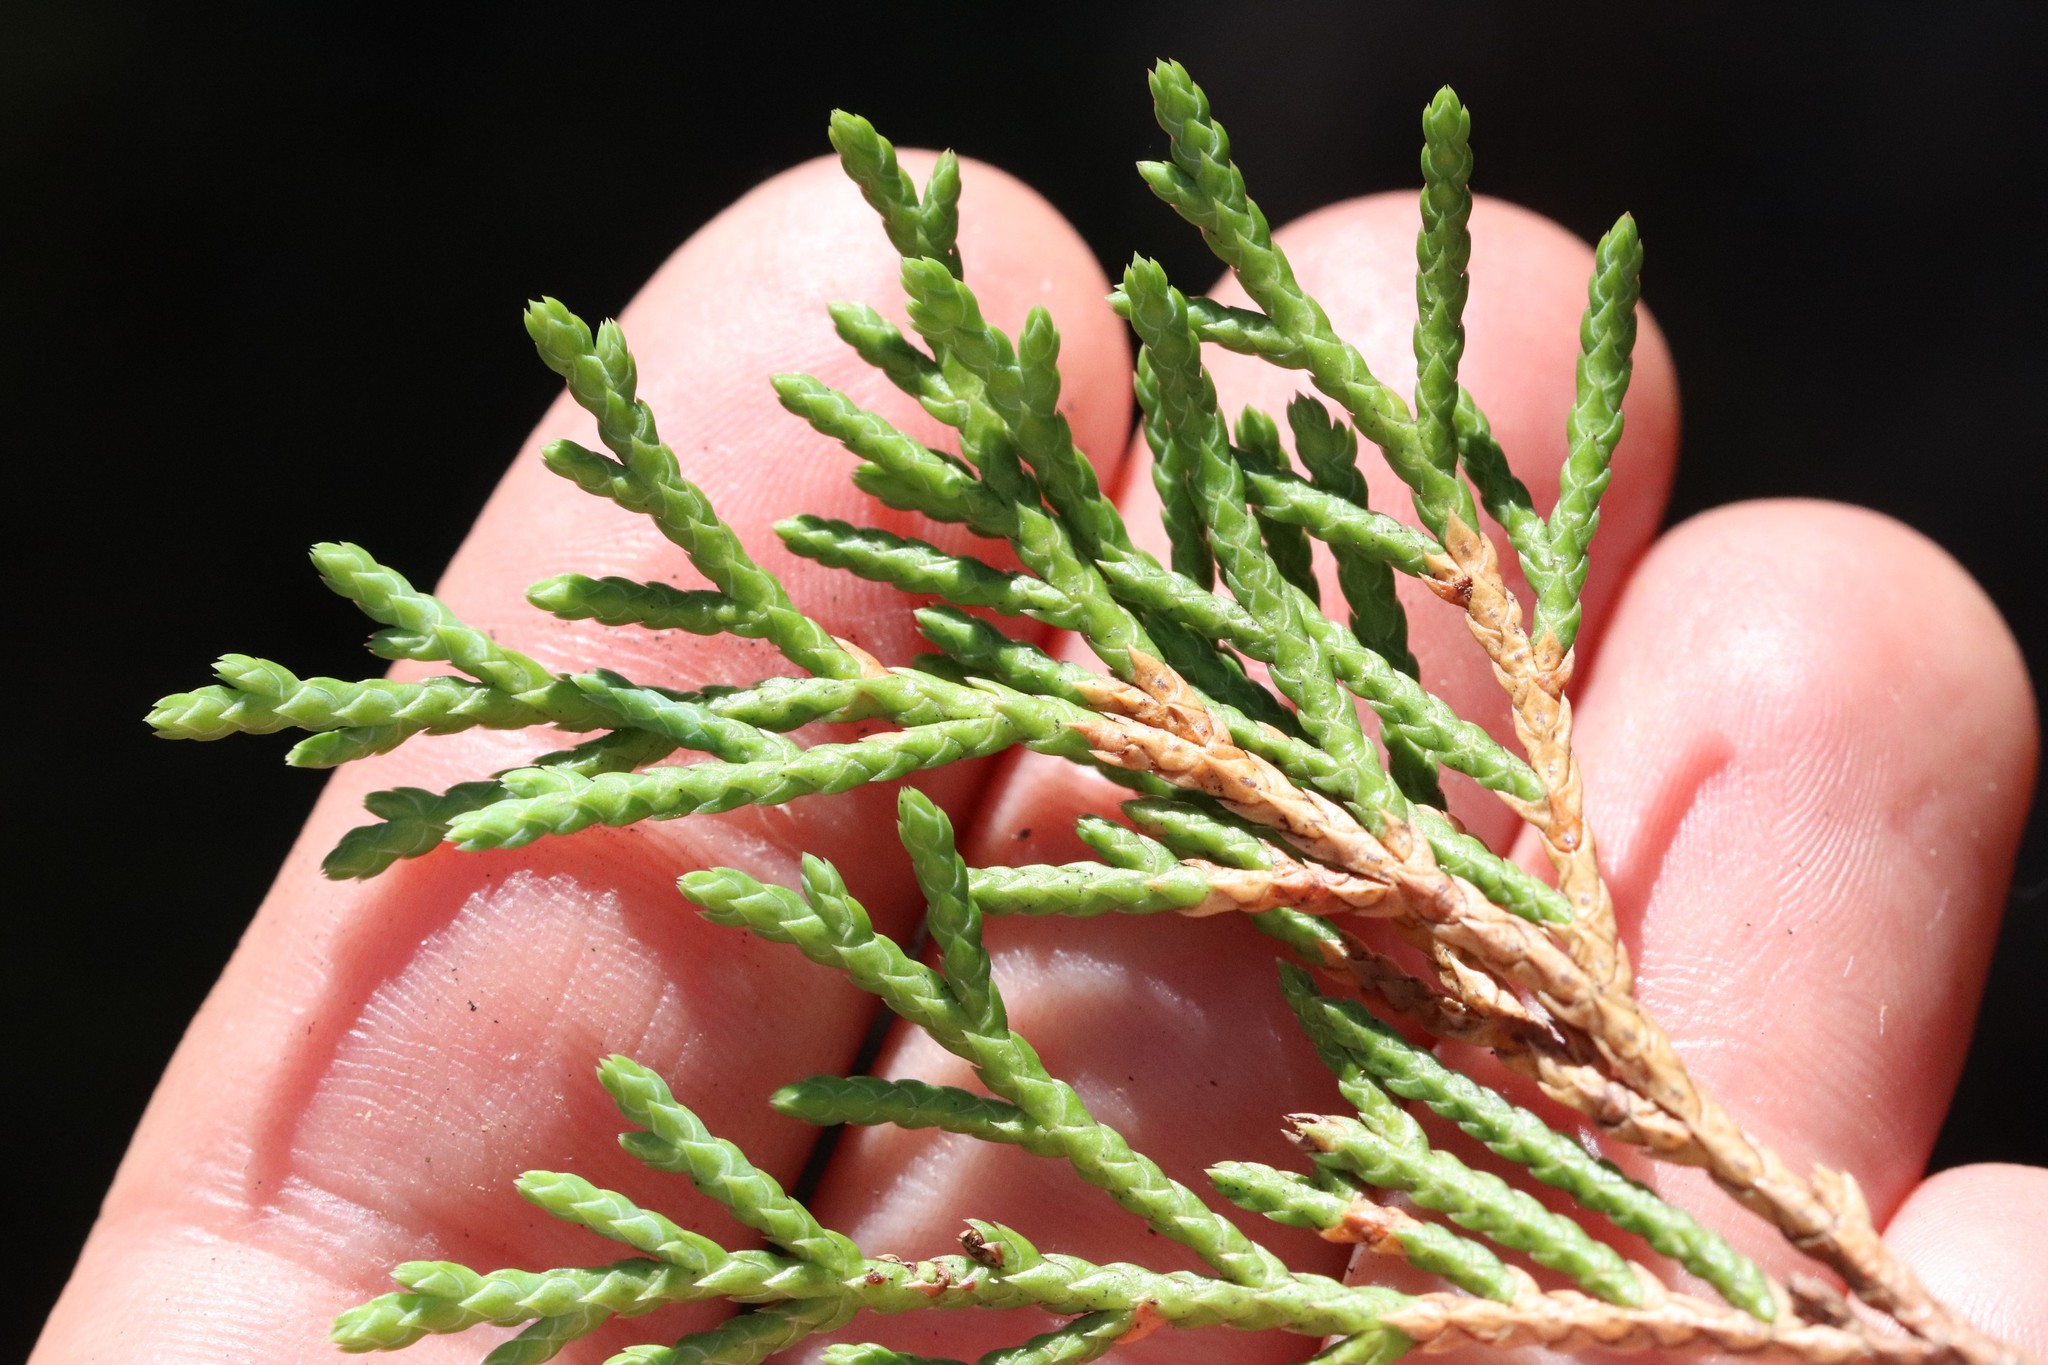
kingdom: Plantae
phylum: Tracheophyta
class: Pinopsida
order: Pinales
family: Cupressaceae
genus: Microbiota
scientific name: Microbiota decussata
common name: Siberian cypress
